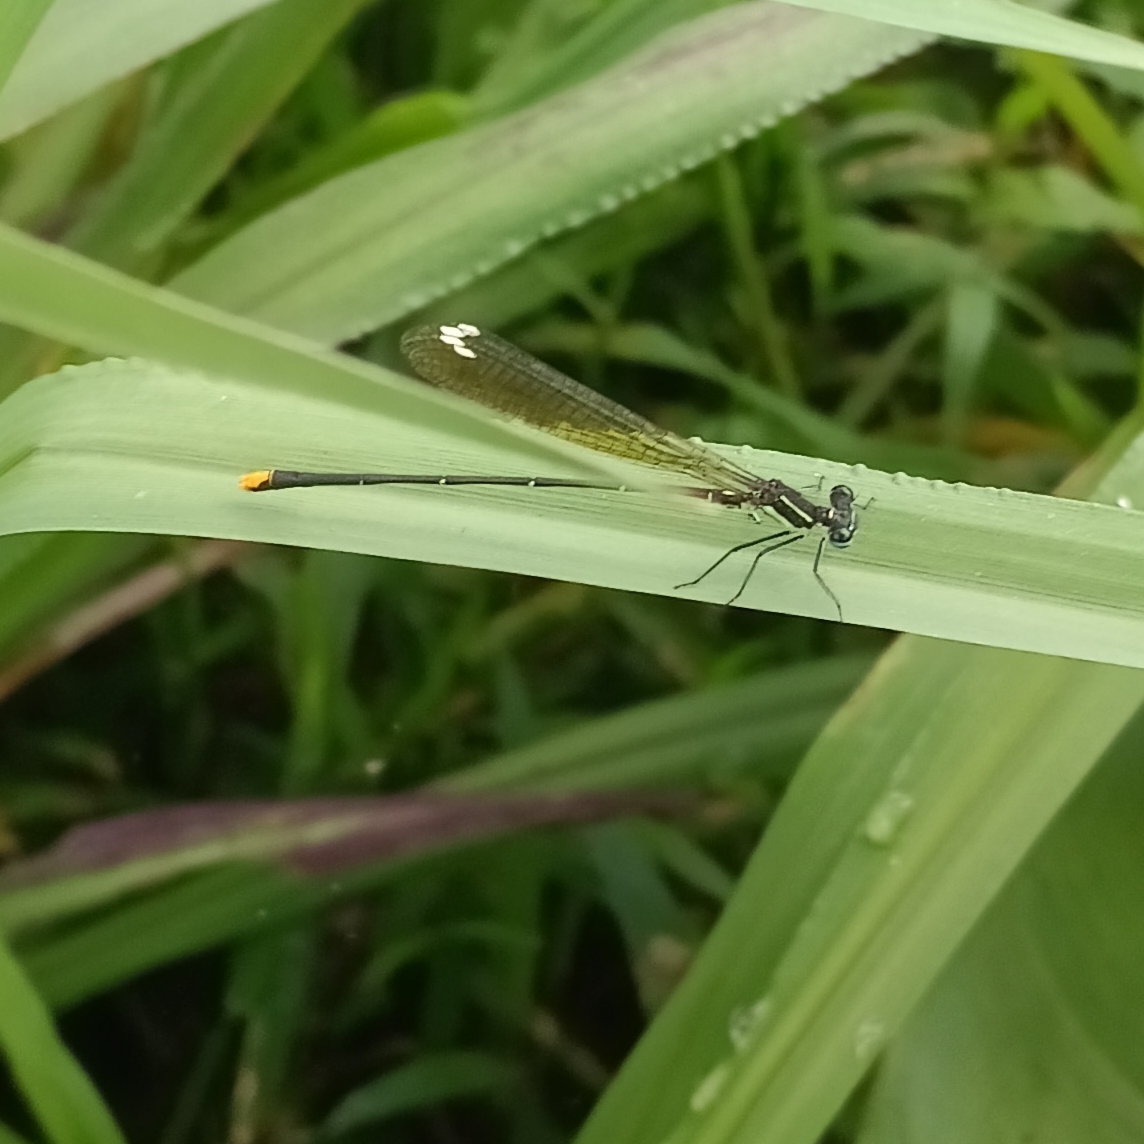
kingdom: Animalia
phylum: Arthropoda
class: Insecta
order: Odonata
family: Platycnemididae
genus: Allocnemis
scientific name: Allocnemis leucosticta
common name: Goldtail
